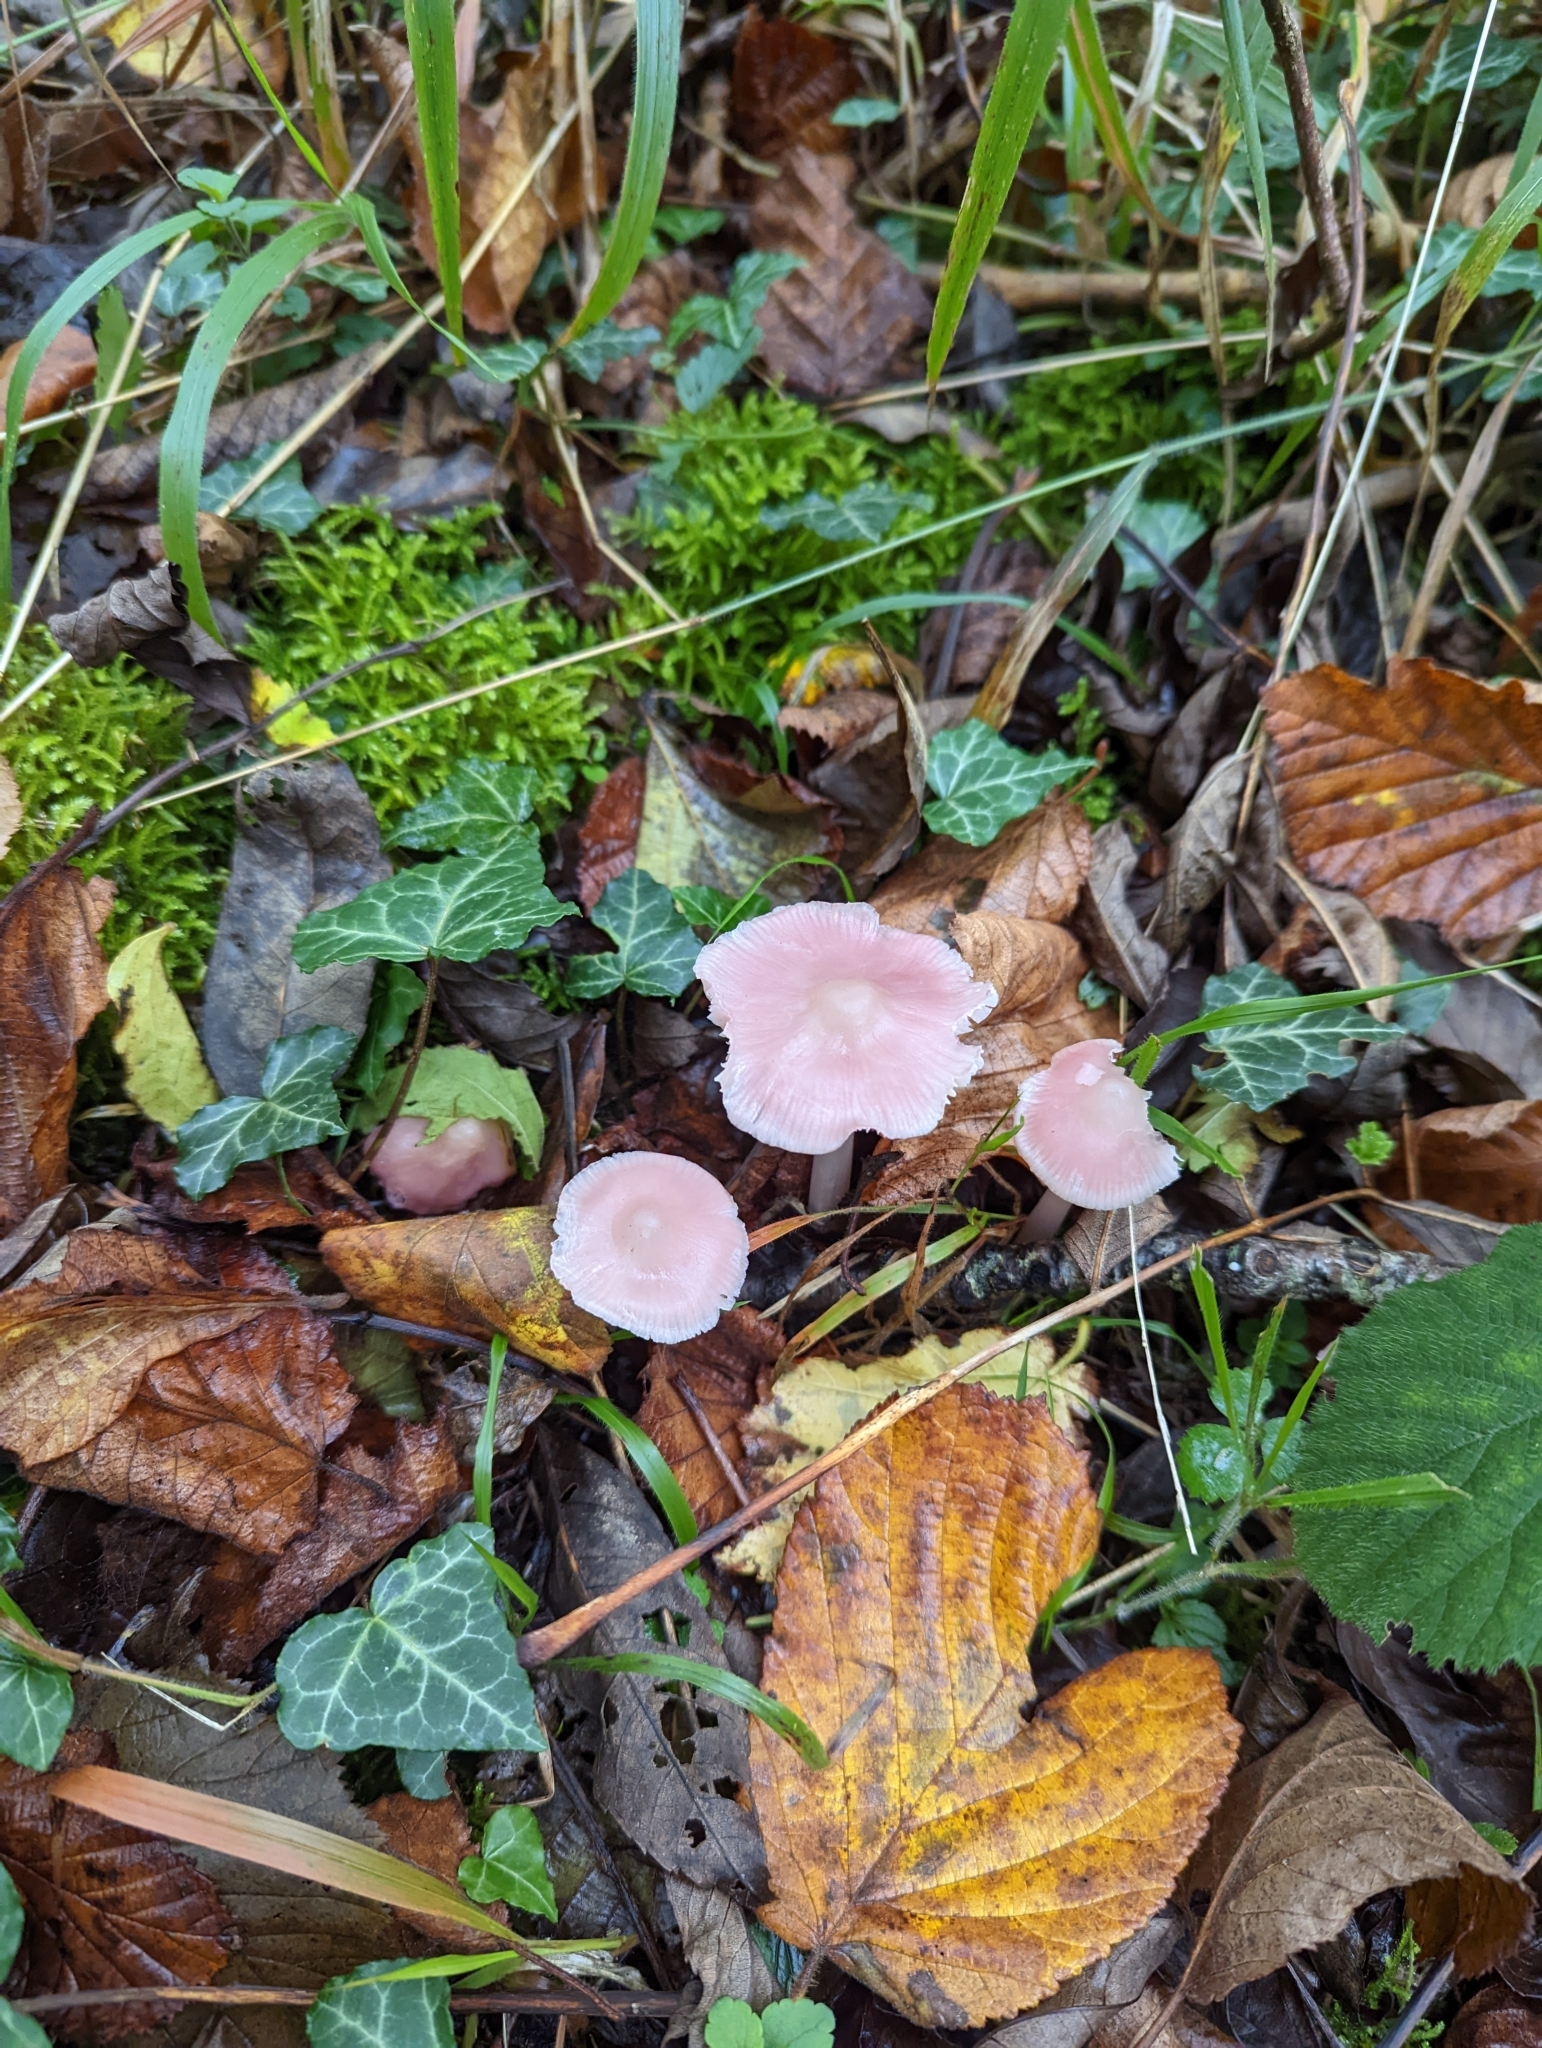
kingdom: Fungi
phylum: Basidiomycota
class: Agaricomycetes
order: Agaricales
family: Mycenaceae
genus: Mycena
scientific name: Mycena rosea
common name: Rosy bonnet
